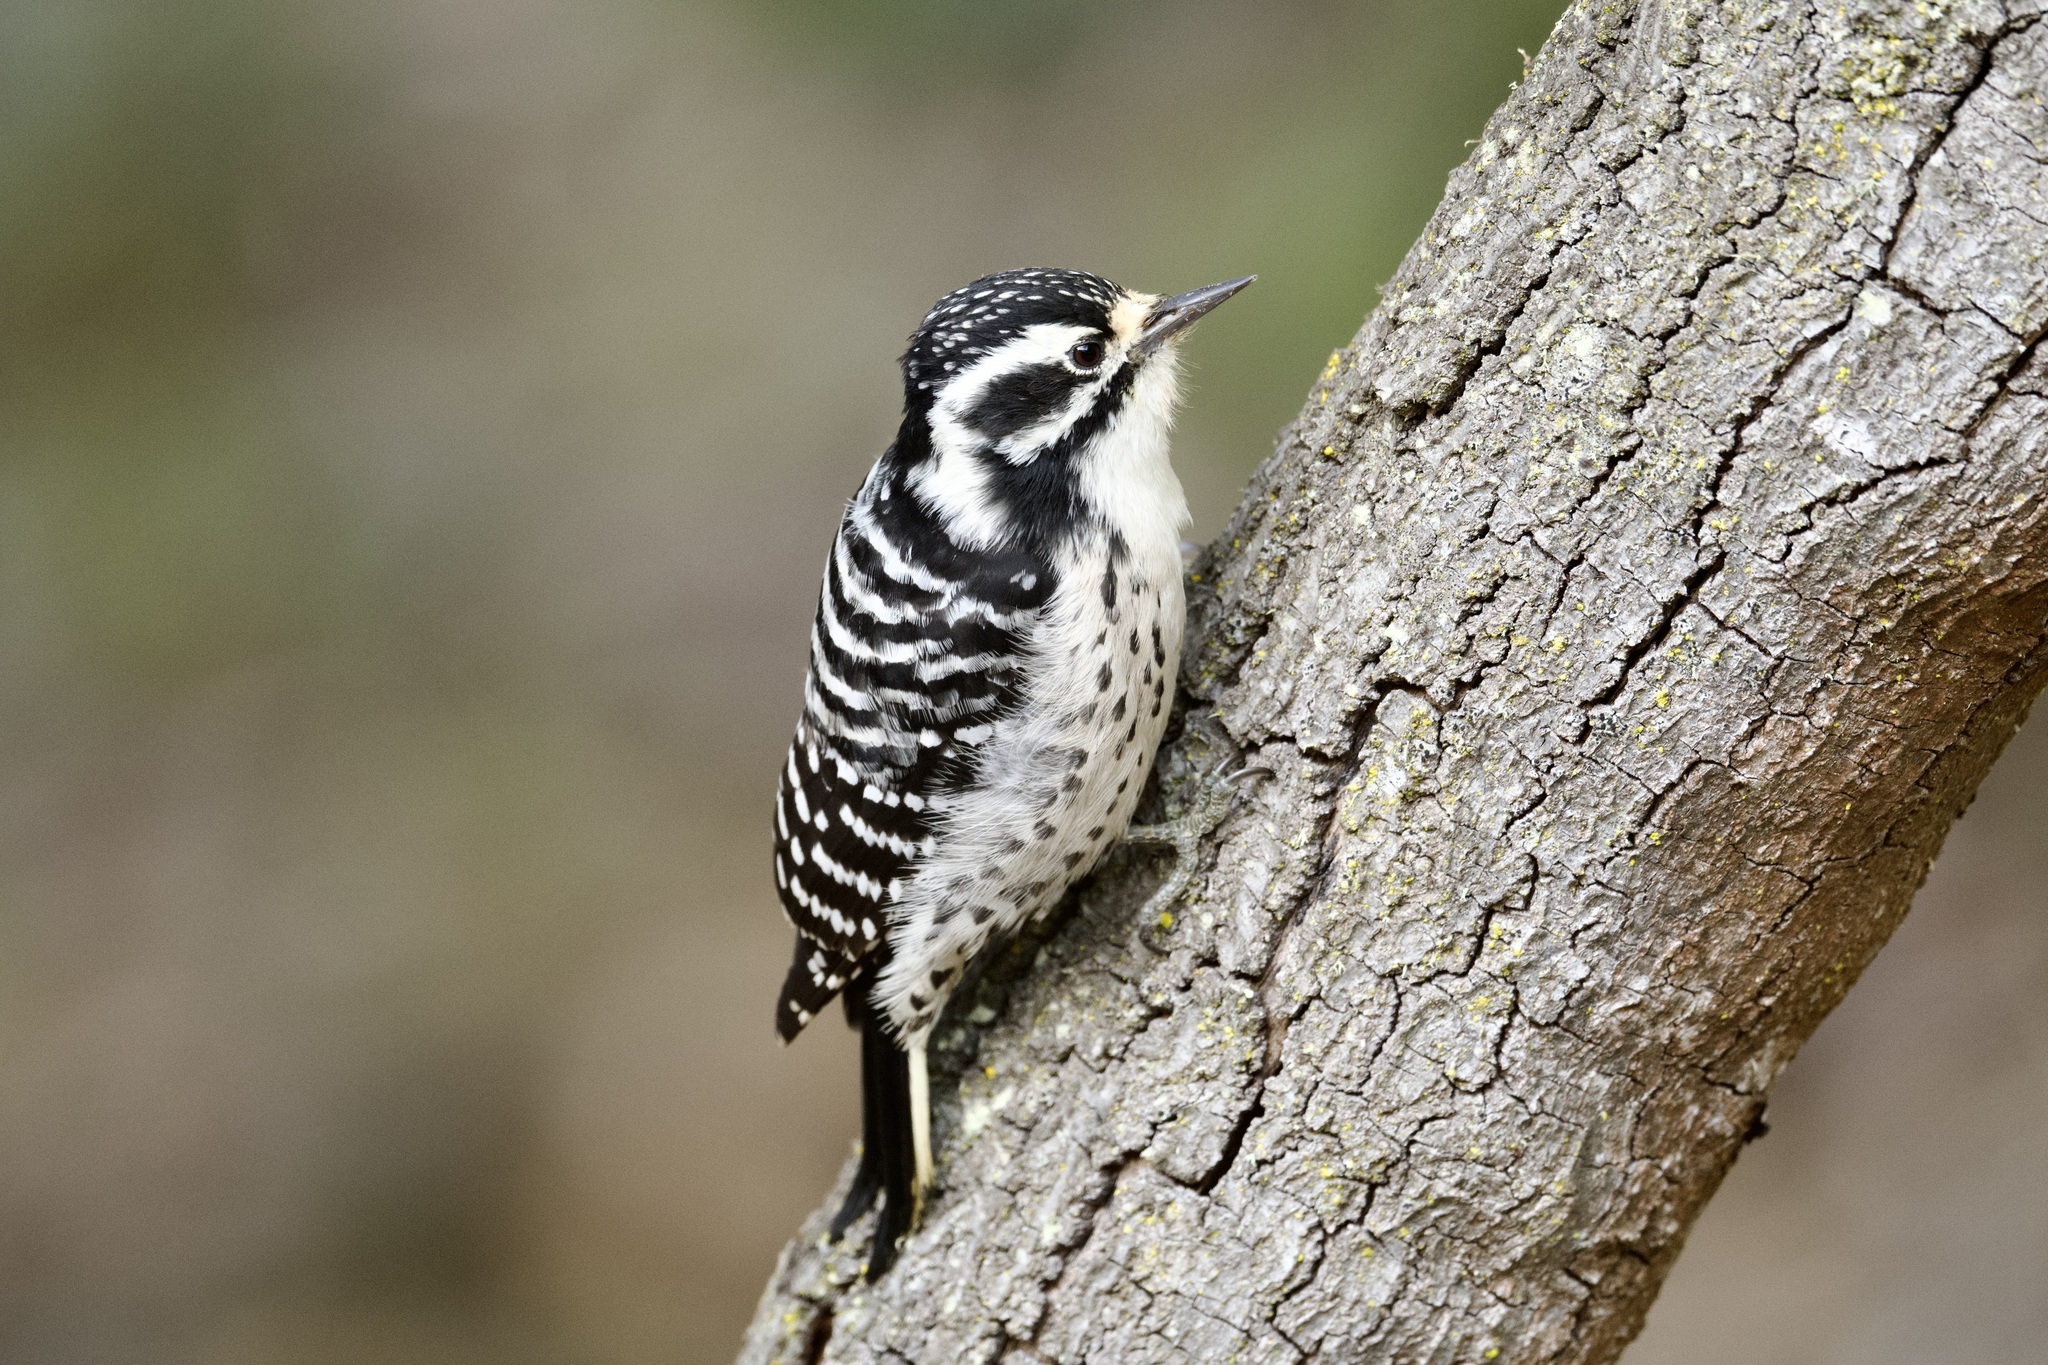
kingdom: Animalia
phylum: Chordata
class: Aves
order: Piciformes
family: Picidae
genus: Dryobates
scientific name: Dryobates nuttallii
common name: Nuttall's woodpecker
